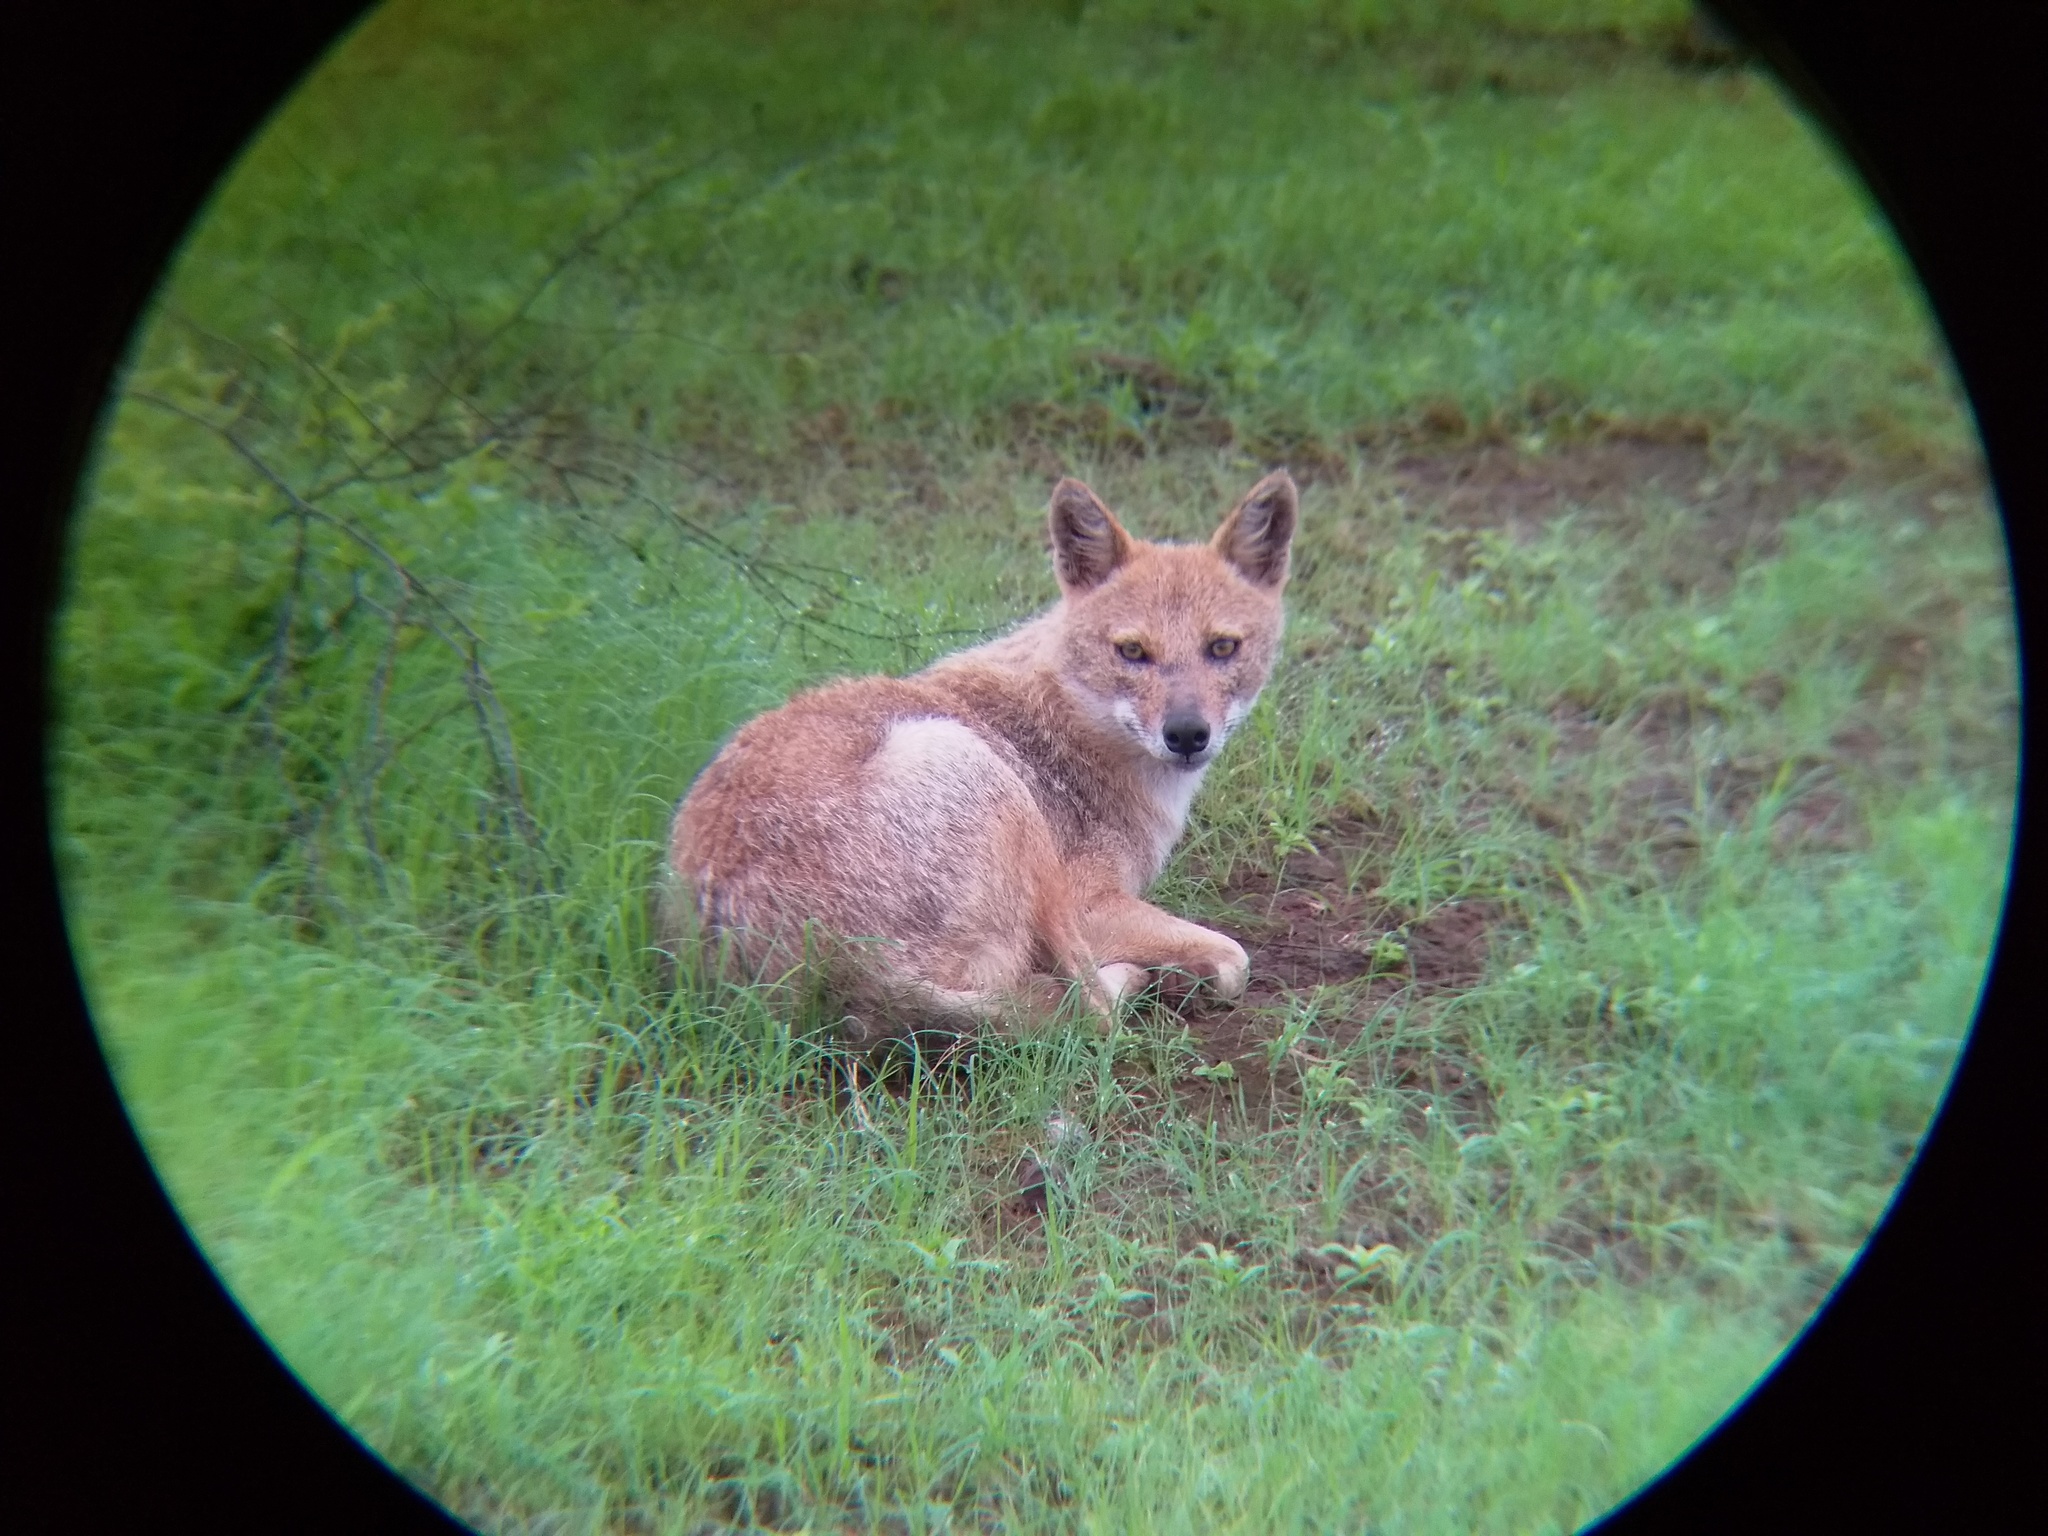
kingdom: Animalia
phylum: Chordata
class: Mammalia
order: Carnivora
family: Canidae
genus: Canis
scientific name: Canis aureus
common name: Golden jackal
